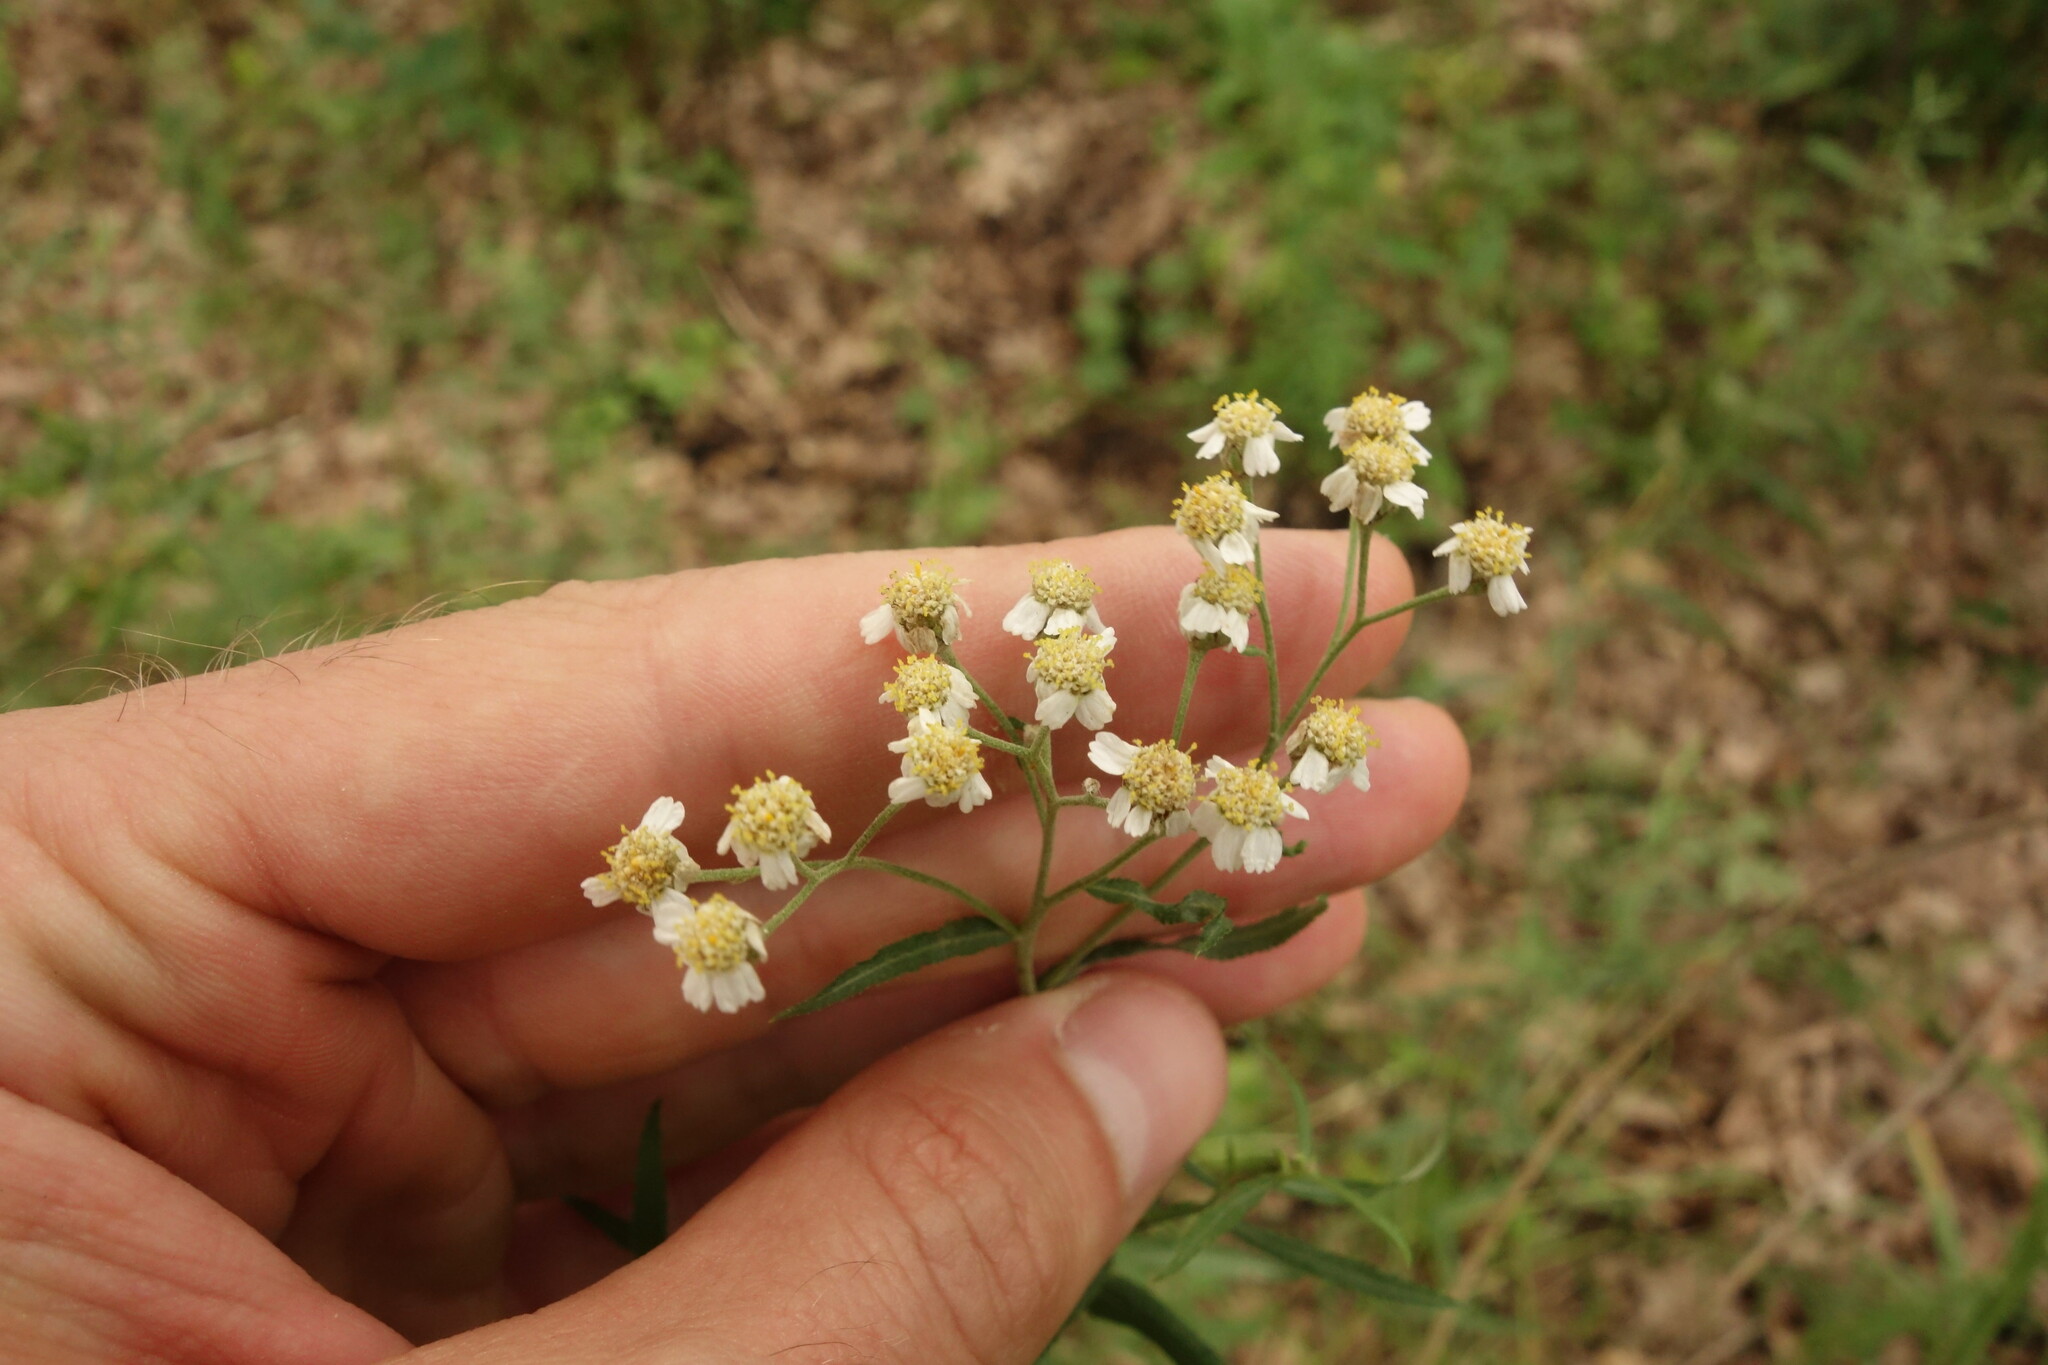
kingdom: Plantae
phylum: Tracheophyta
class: Magnoliopsida
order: Asterales
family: Asteraceae
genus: Achillea
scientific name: Achillea salicifolia
